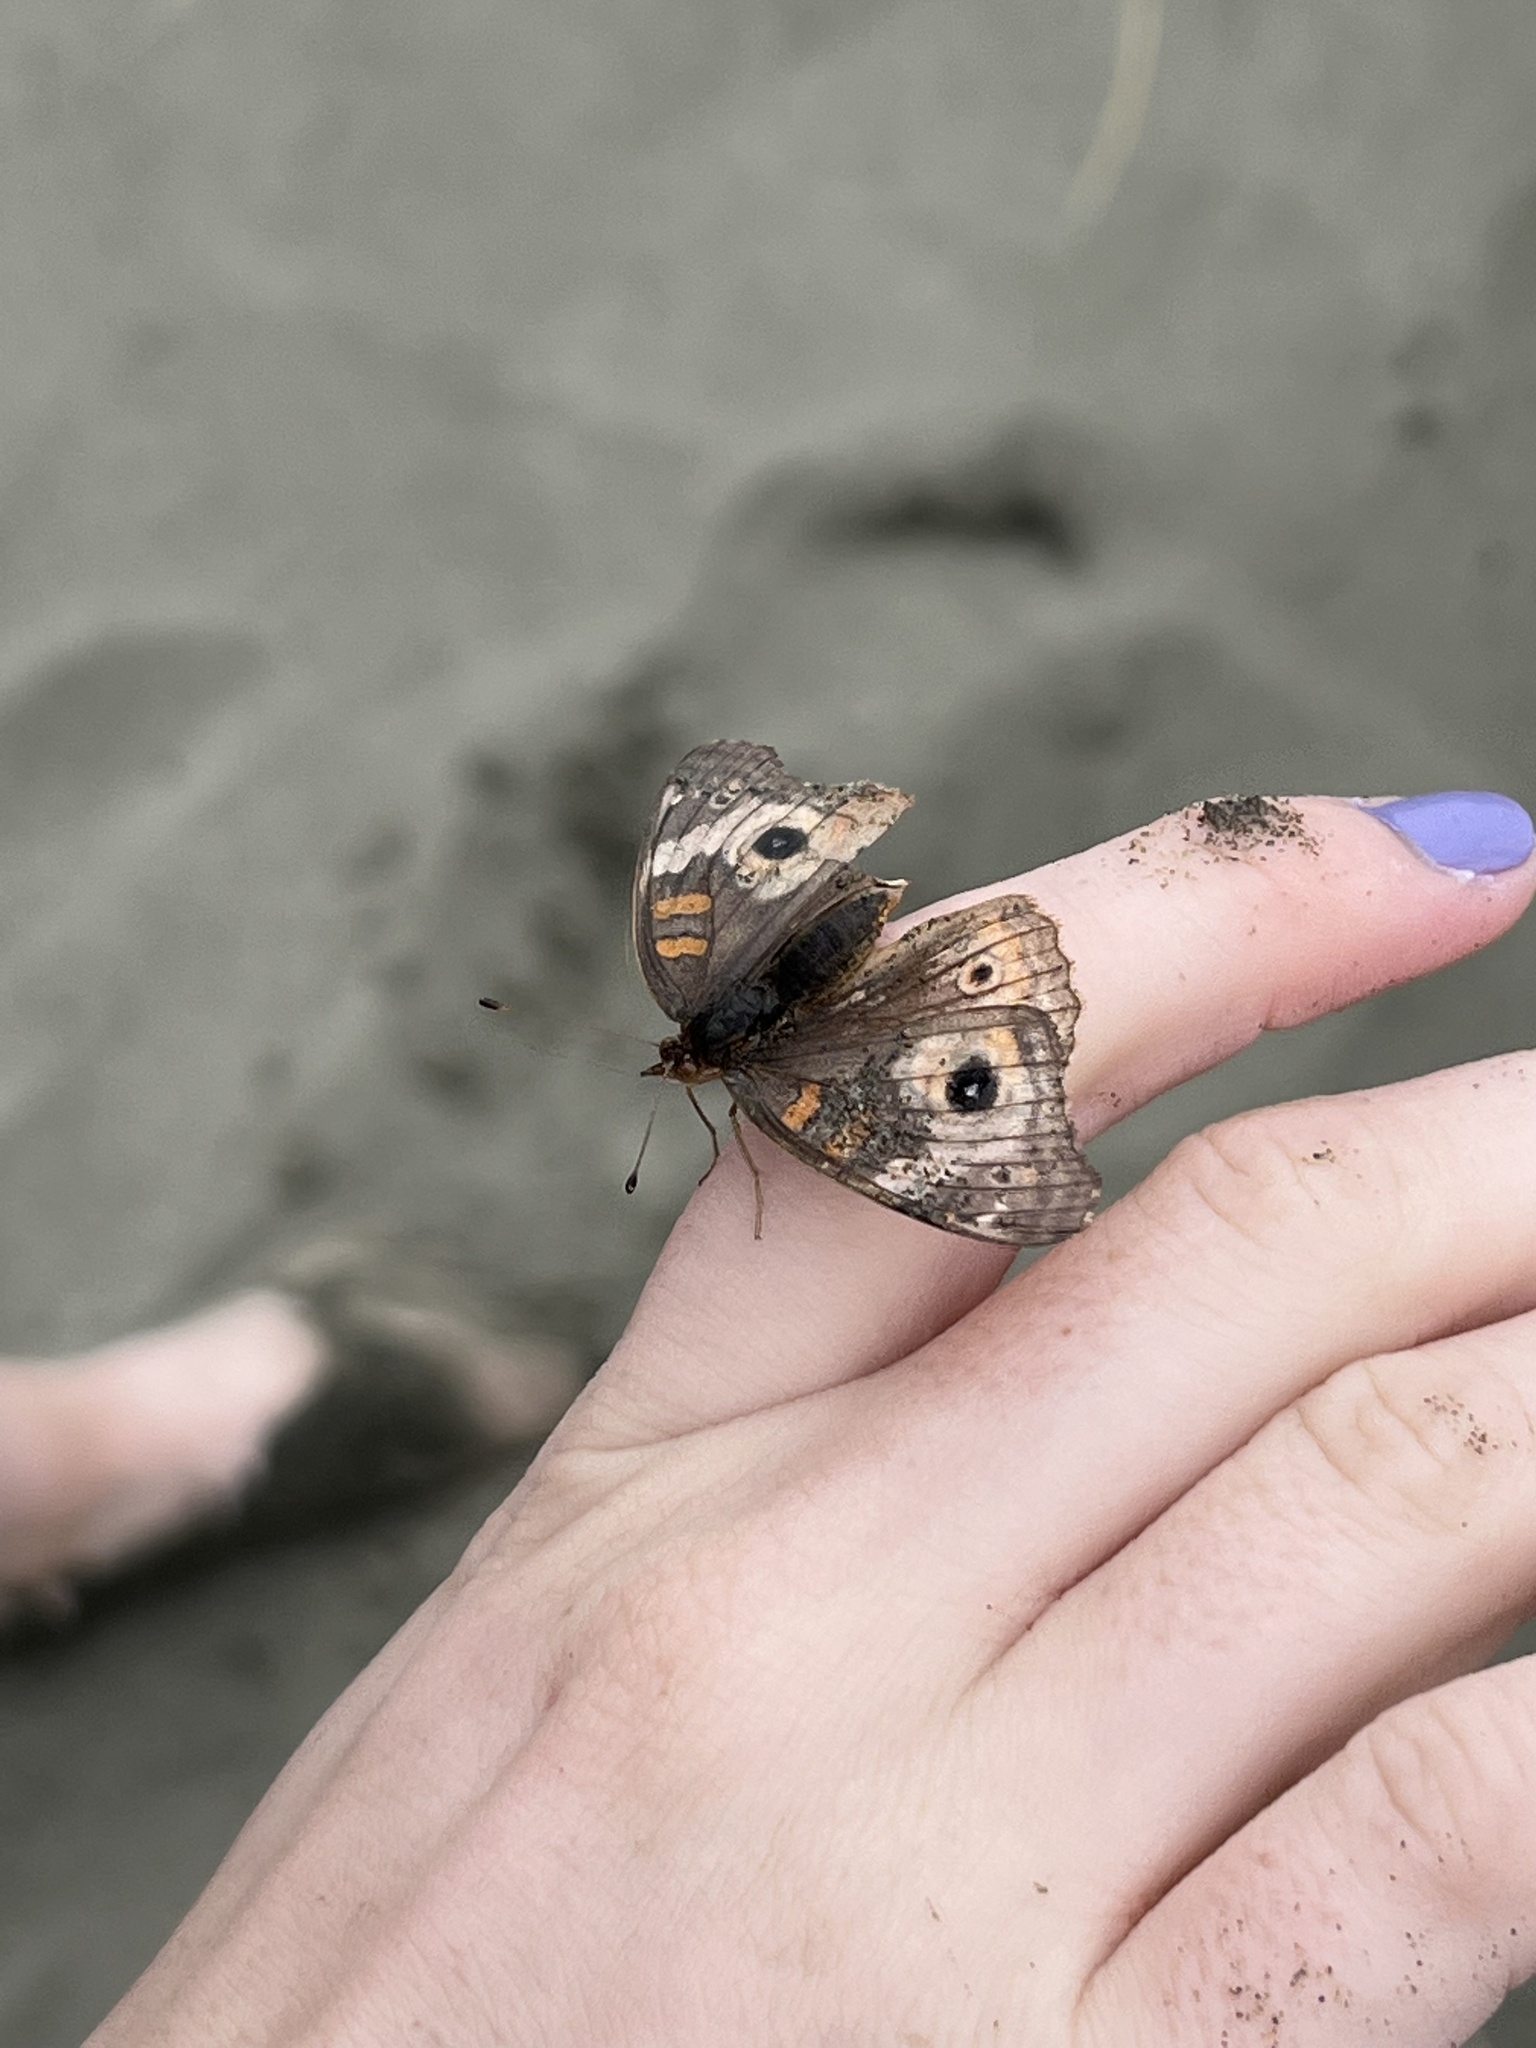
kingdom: Animalia
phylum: Arthropoda
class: Insecta
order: Lepidoptera
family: Nymphalidae
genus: Junonia
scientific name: Junonia grisea
